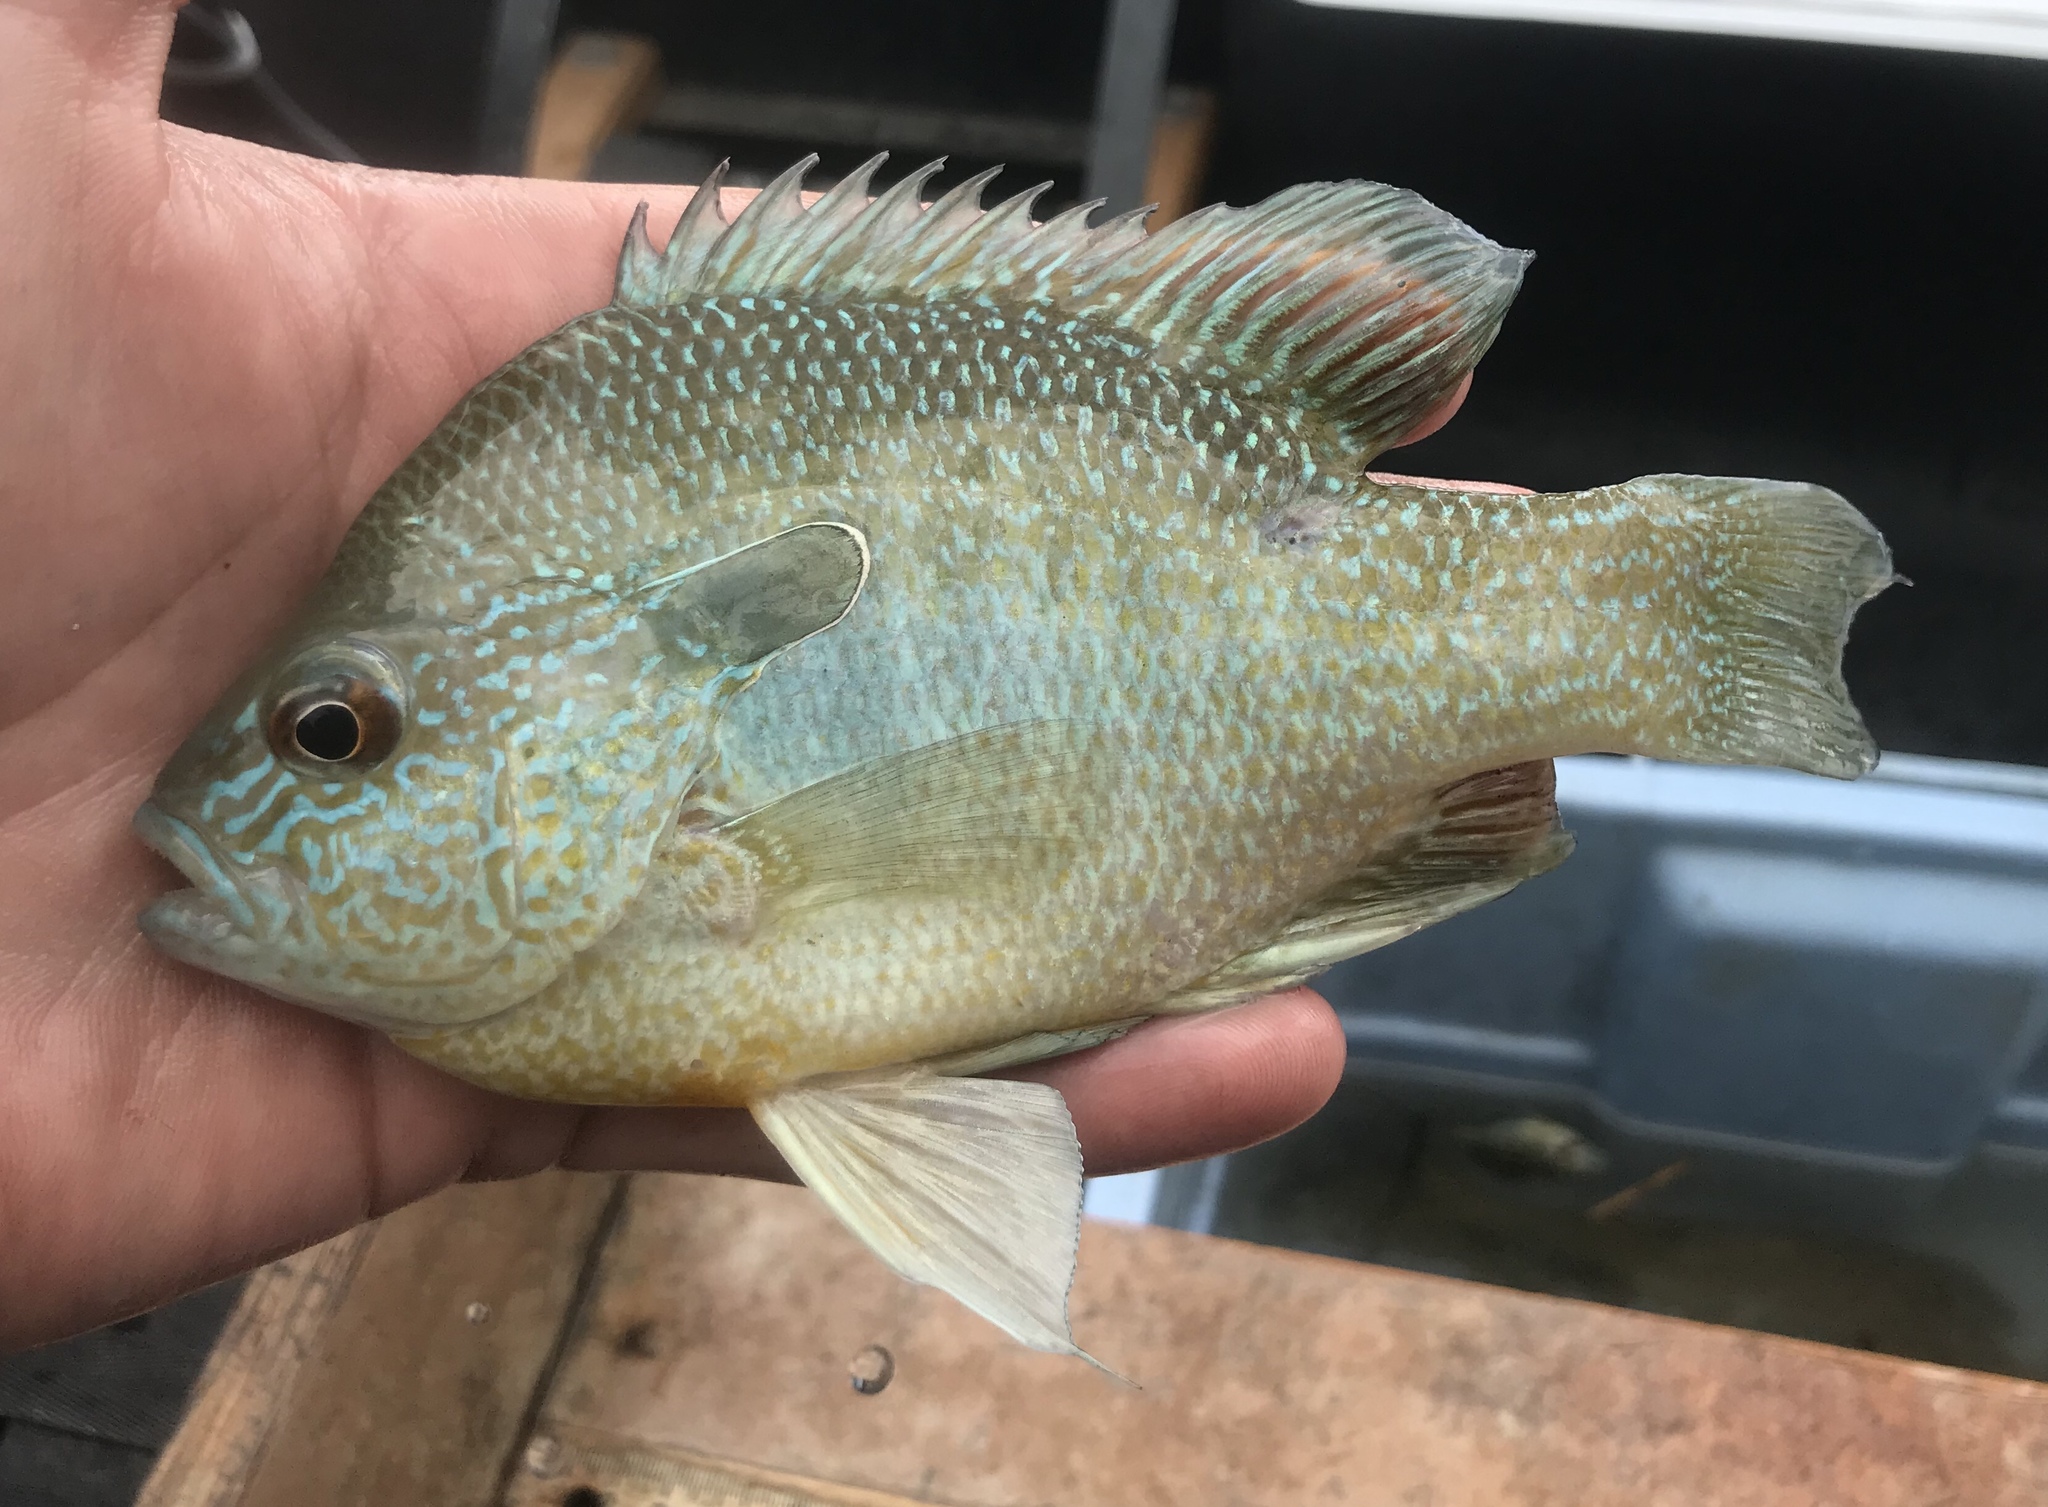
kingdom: Animalia
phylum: Chordata
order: Perciformes
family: Centrarchidae
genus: Lepomis
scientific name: Lepomis megalotis
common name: Longear sunfish
